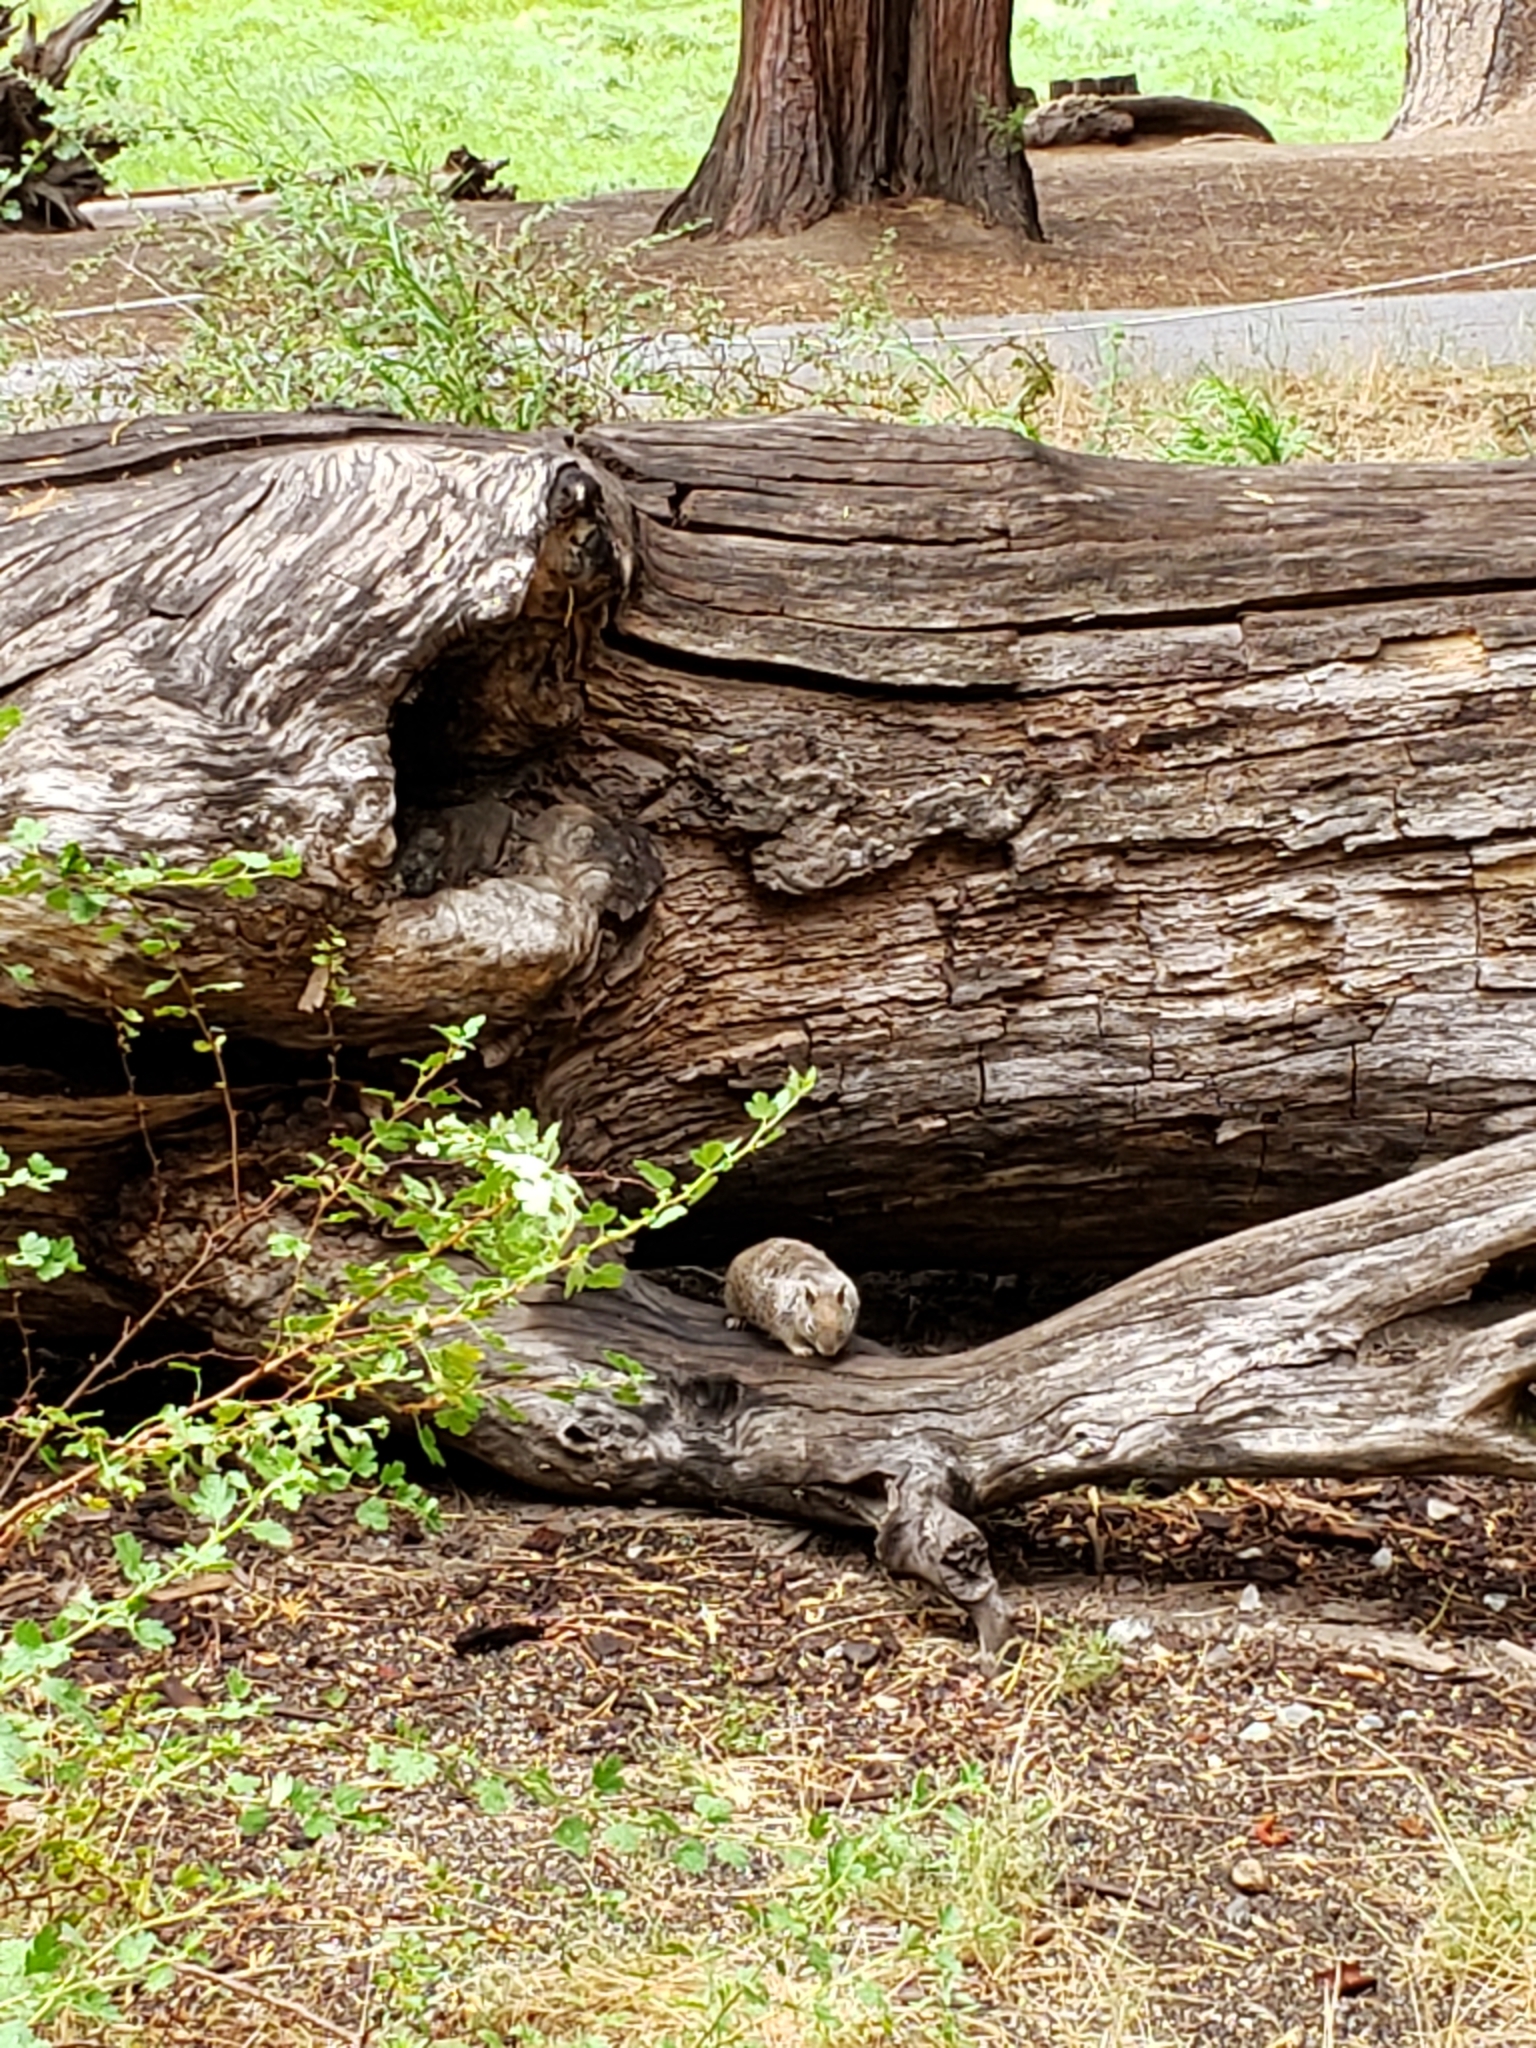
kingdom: Animalia
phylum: Chordata
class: Mammalia
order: Rodentia
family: Sciuridae
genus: Otospermophilus
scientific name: Otospermophilus beecheyi
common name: California ground squirrel
